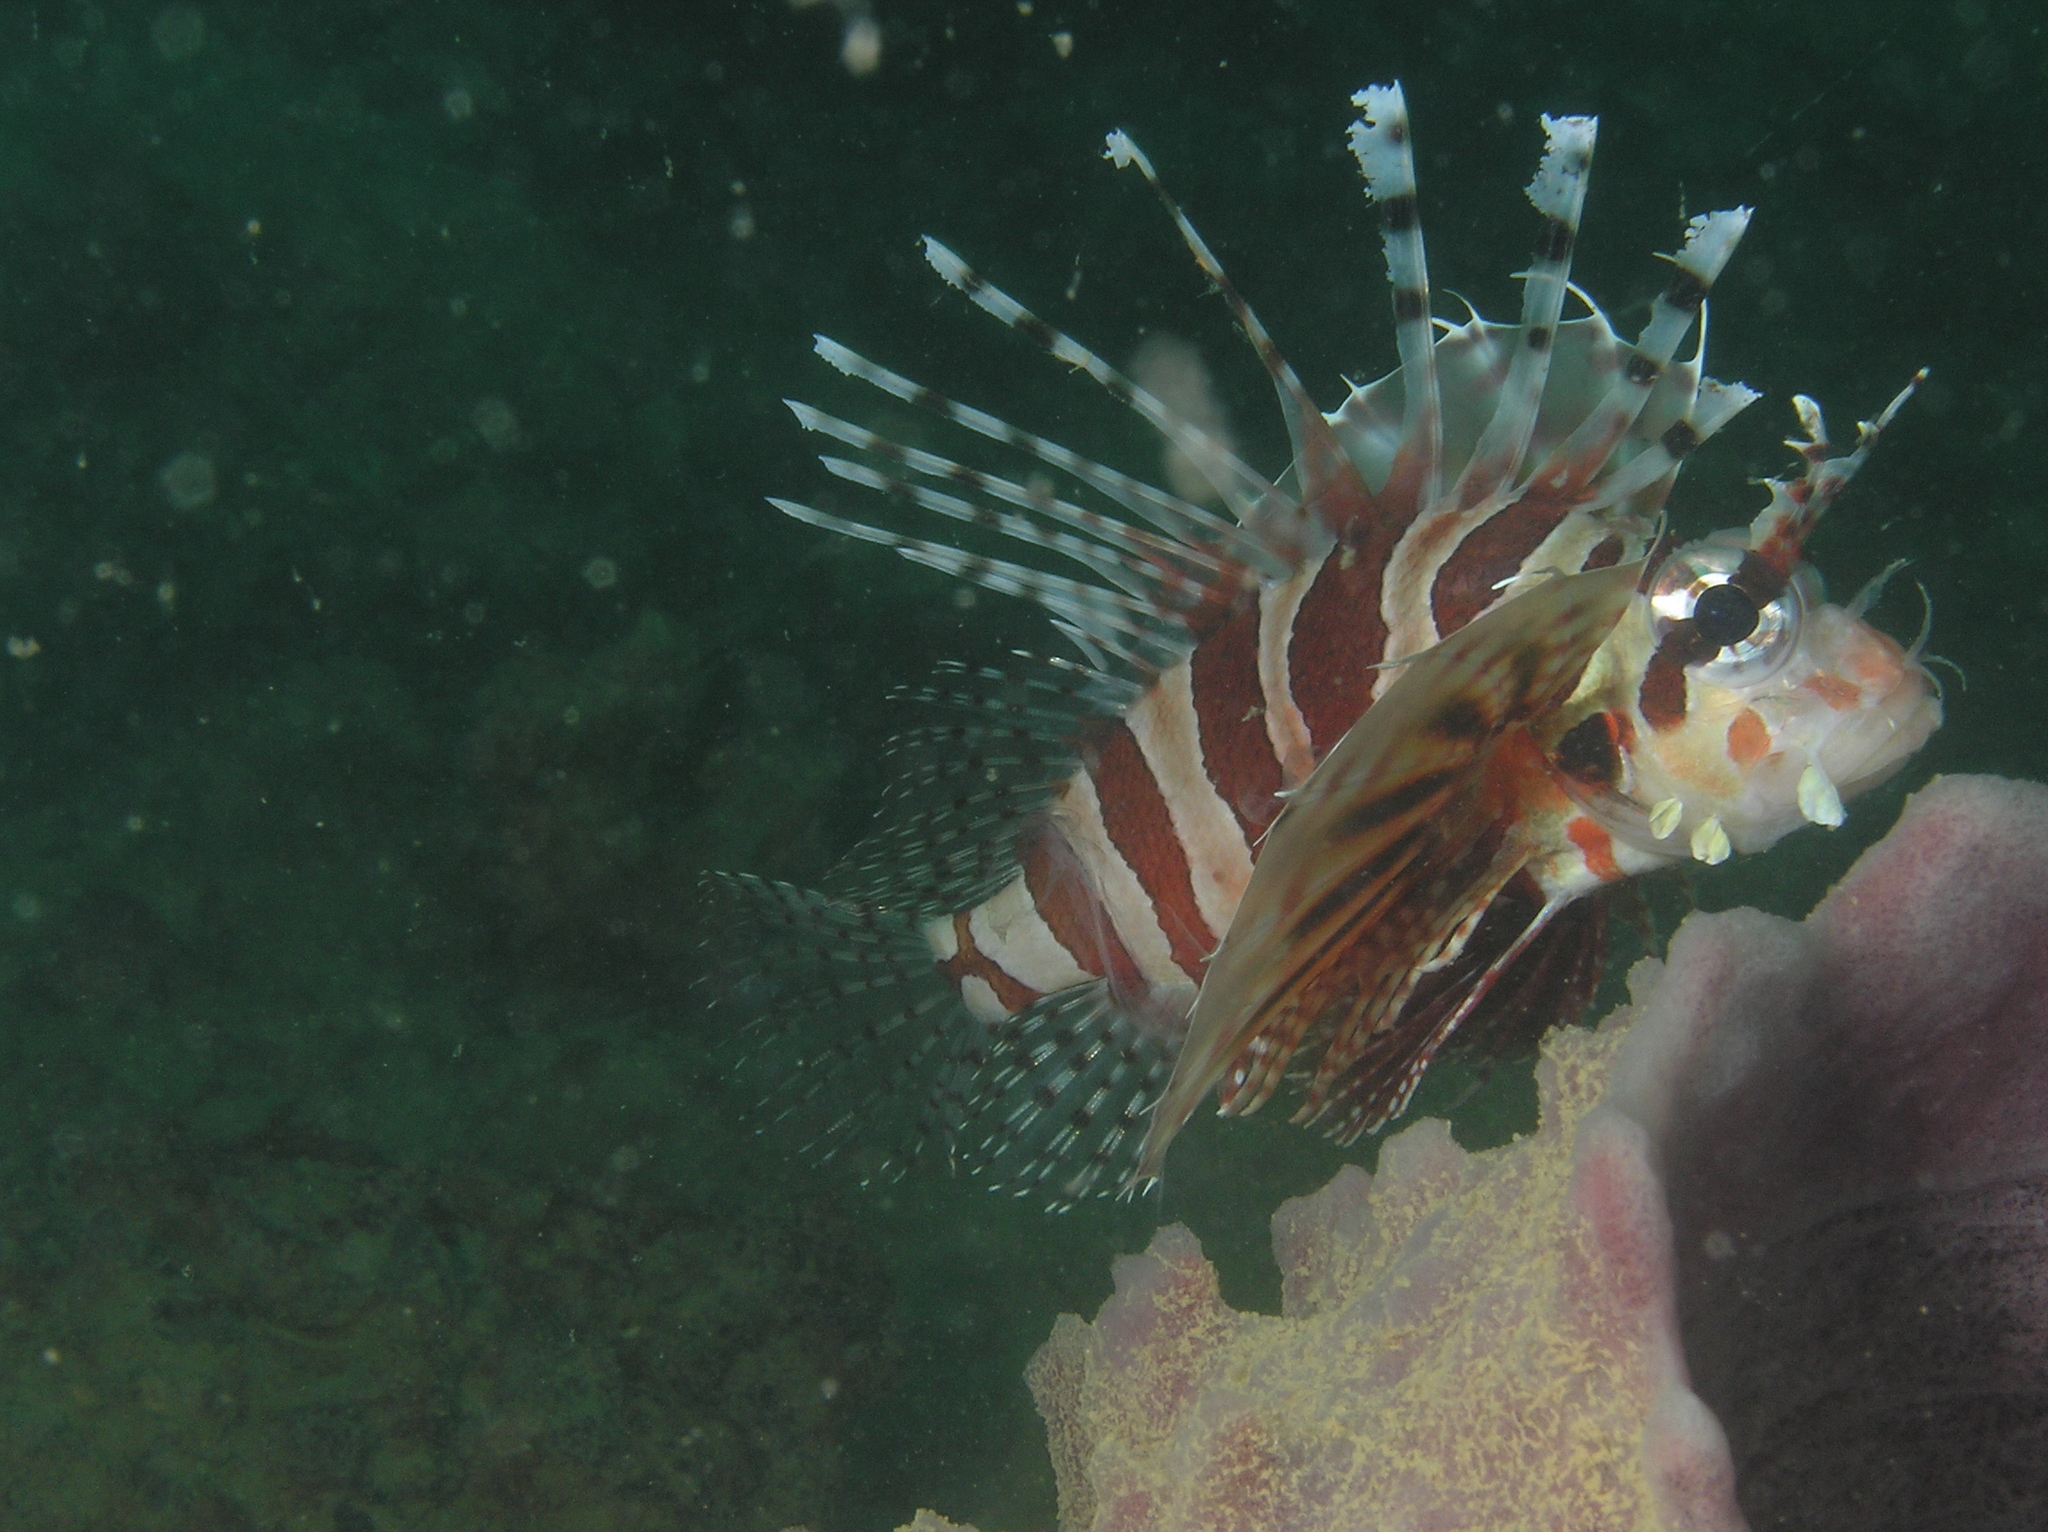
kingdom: Animalia
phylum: Chordata
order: Scorpaeniformes
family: Scorpaenidae
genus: Dendrochirus
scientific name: Dendrochirus zebra
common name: Zebra lionfish
